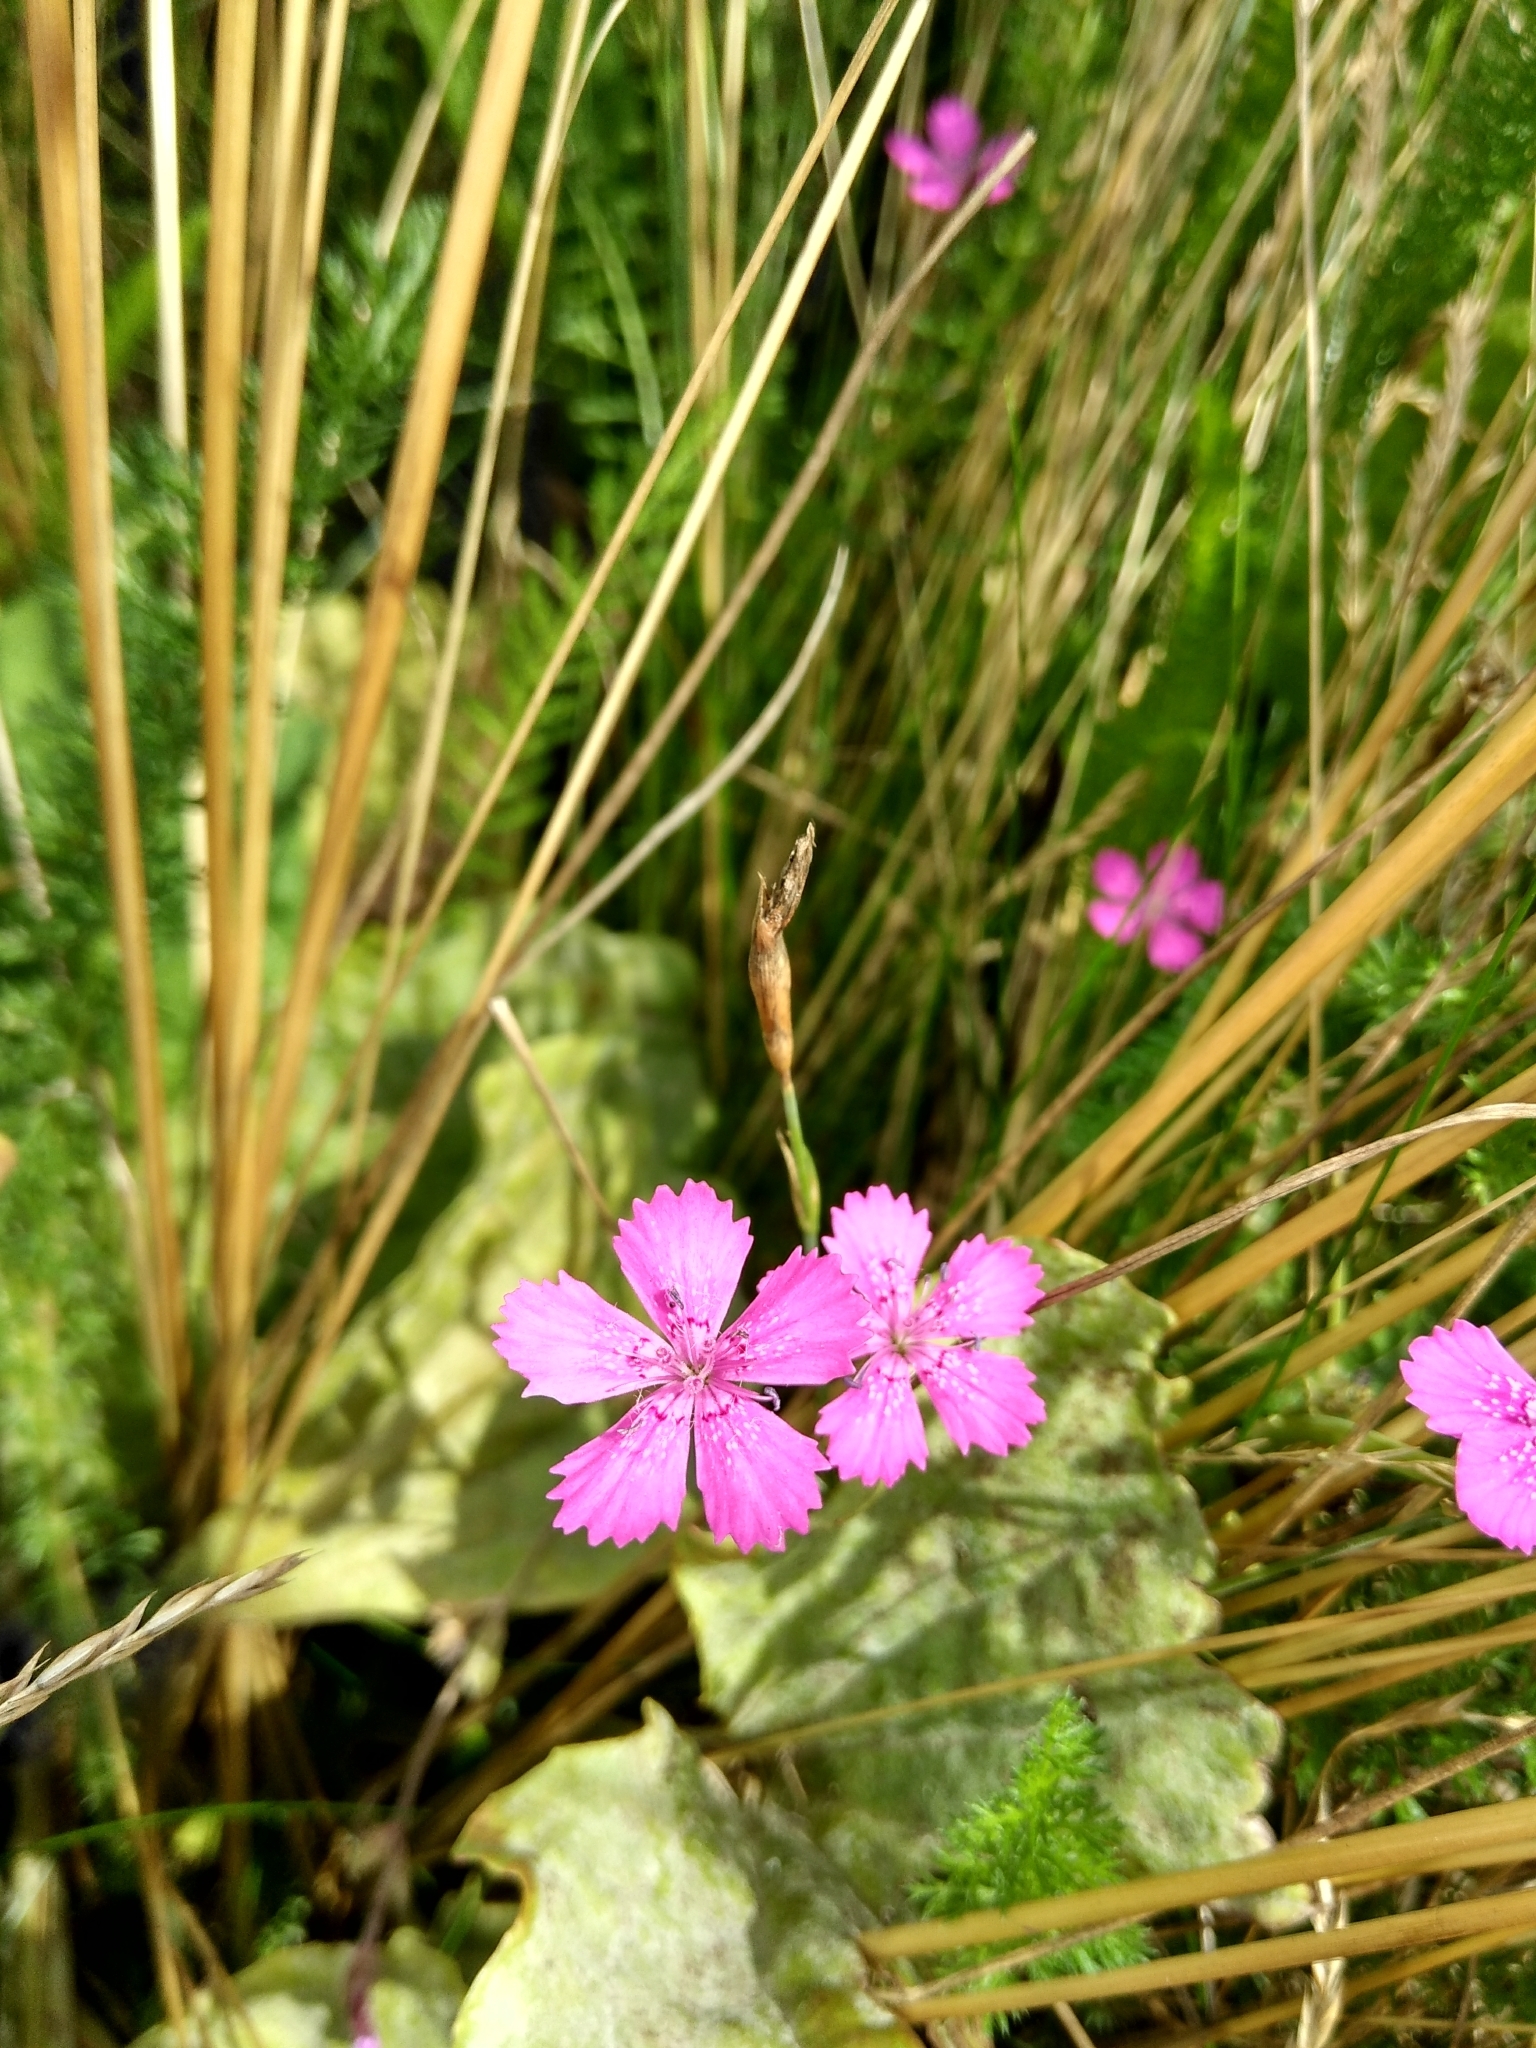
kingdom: Plantae
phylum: Tracheophyta
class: Magnoliopsida
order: Caryophyllales
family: Caryophyllaceae
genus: Dianthus
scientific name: Dianthus deltoides
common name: Maiden pink
